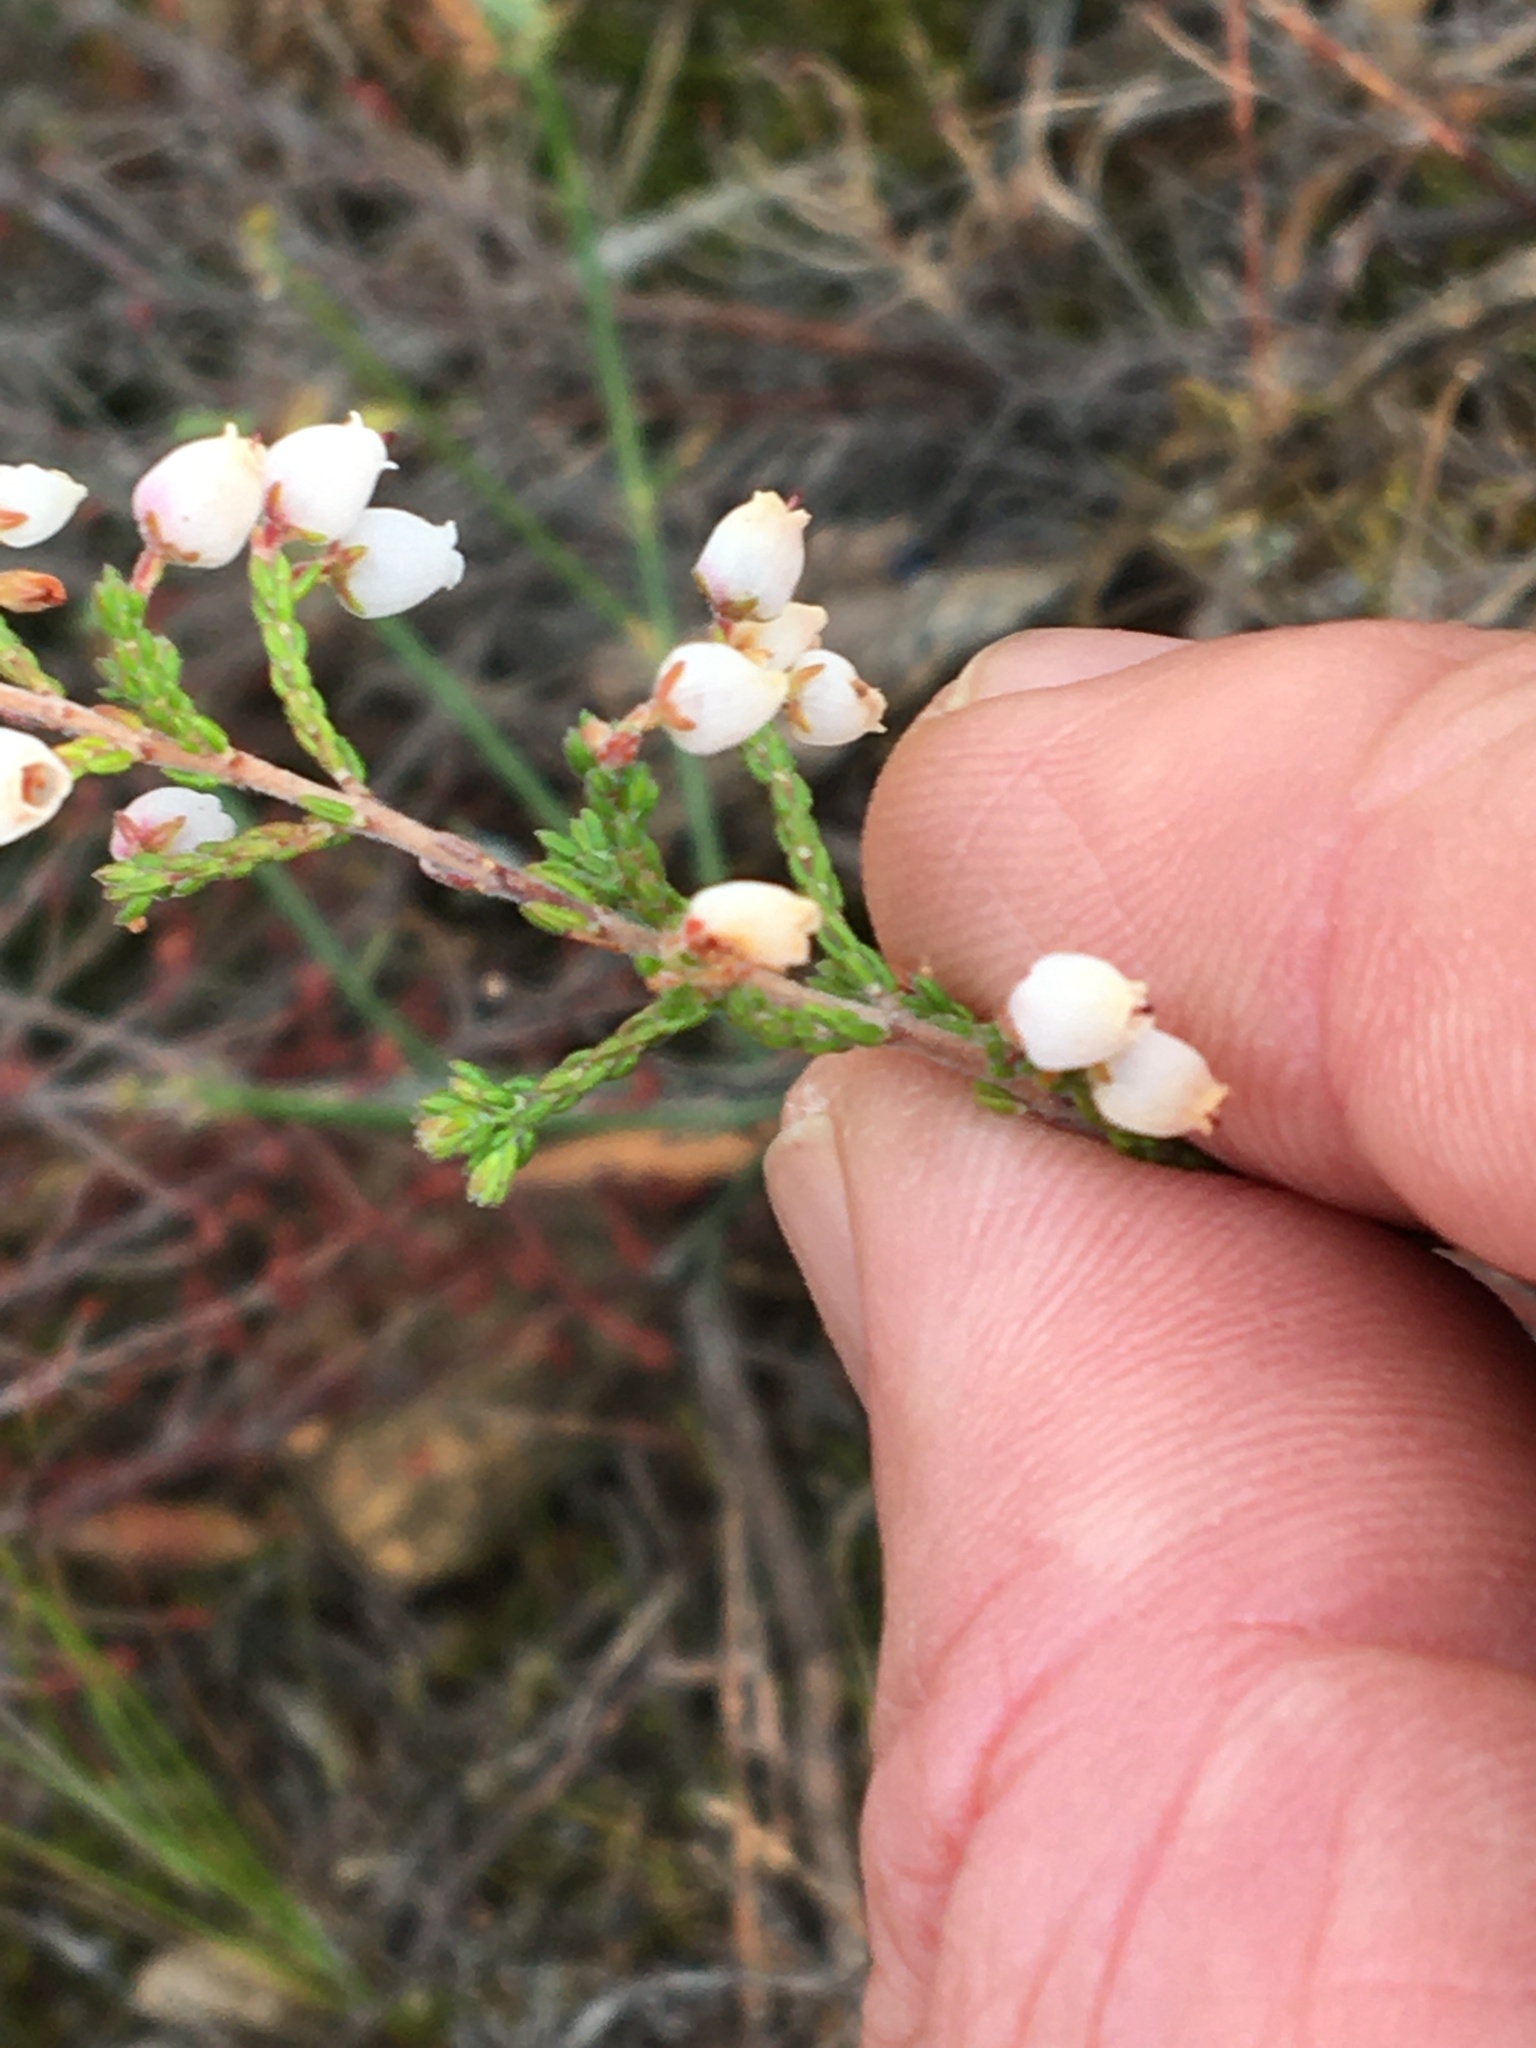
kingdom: Plantae
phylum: Tracheophyta
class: Magnoliopsida
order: Ericales
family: Ericaceae
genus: Erica
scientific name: Erica pubescens
